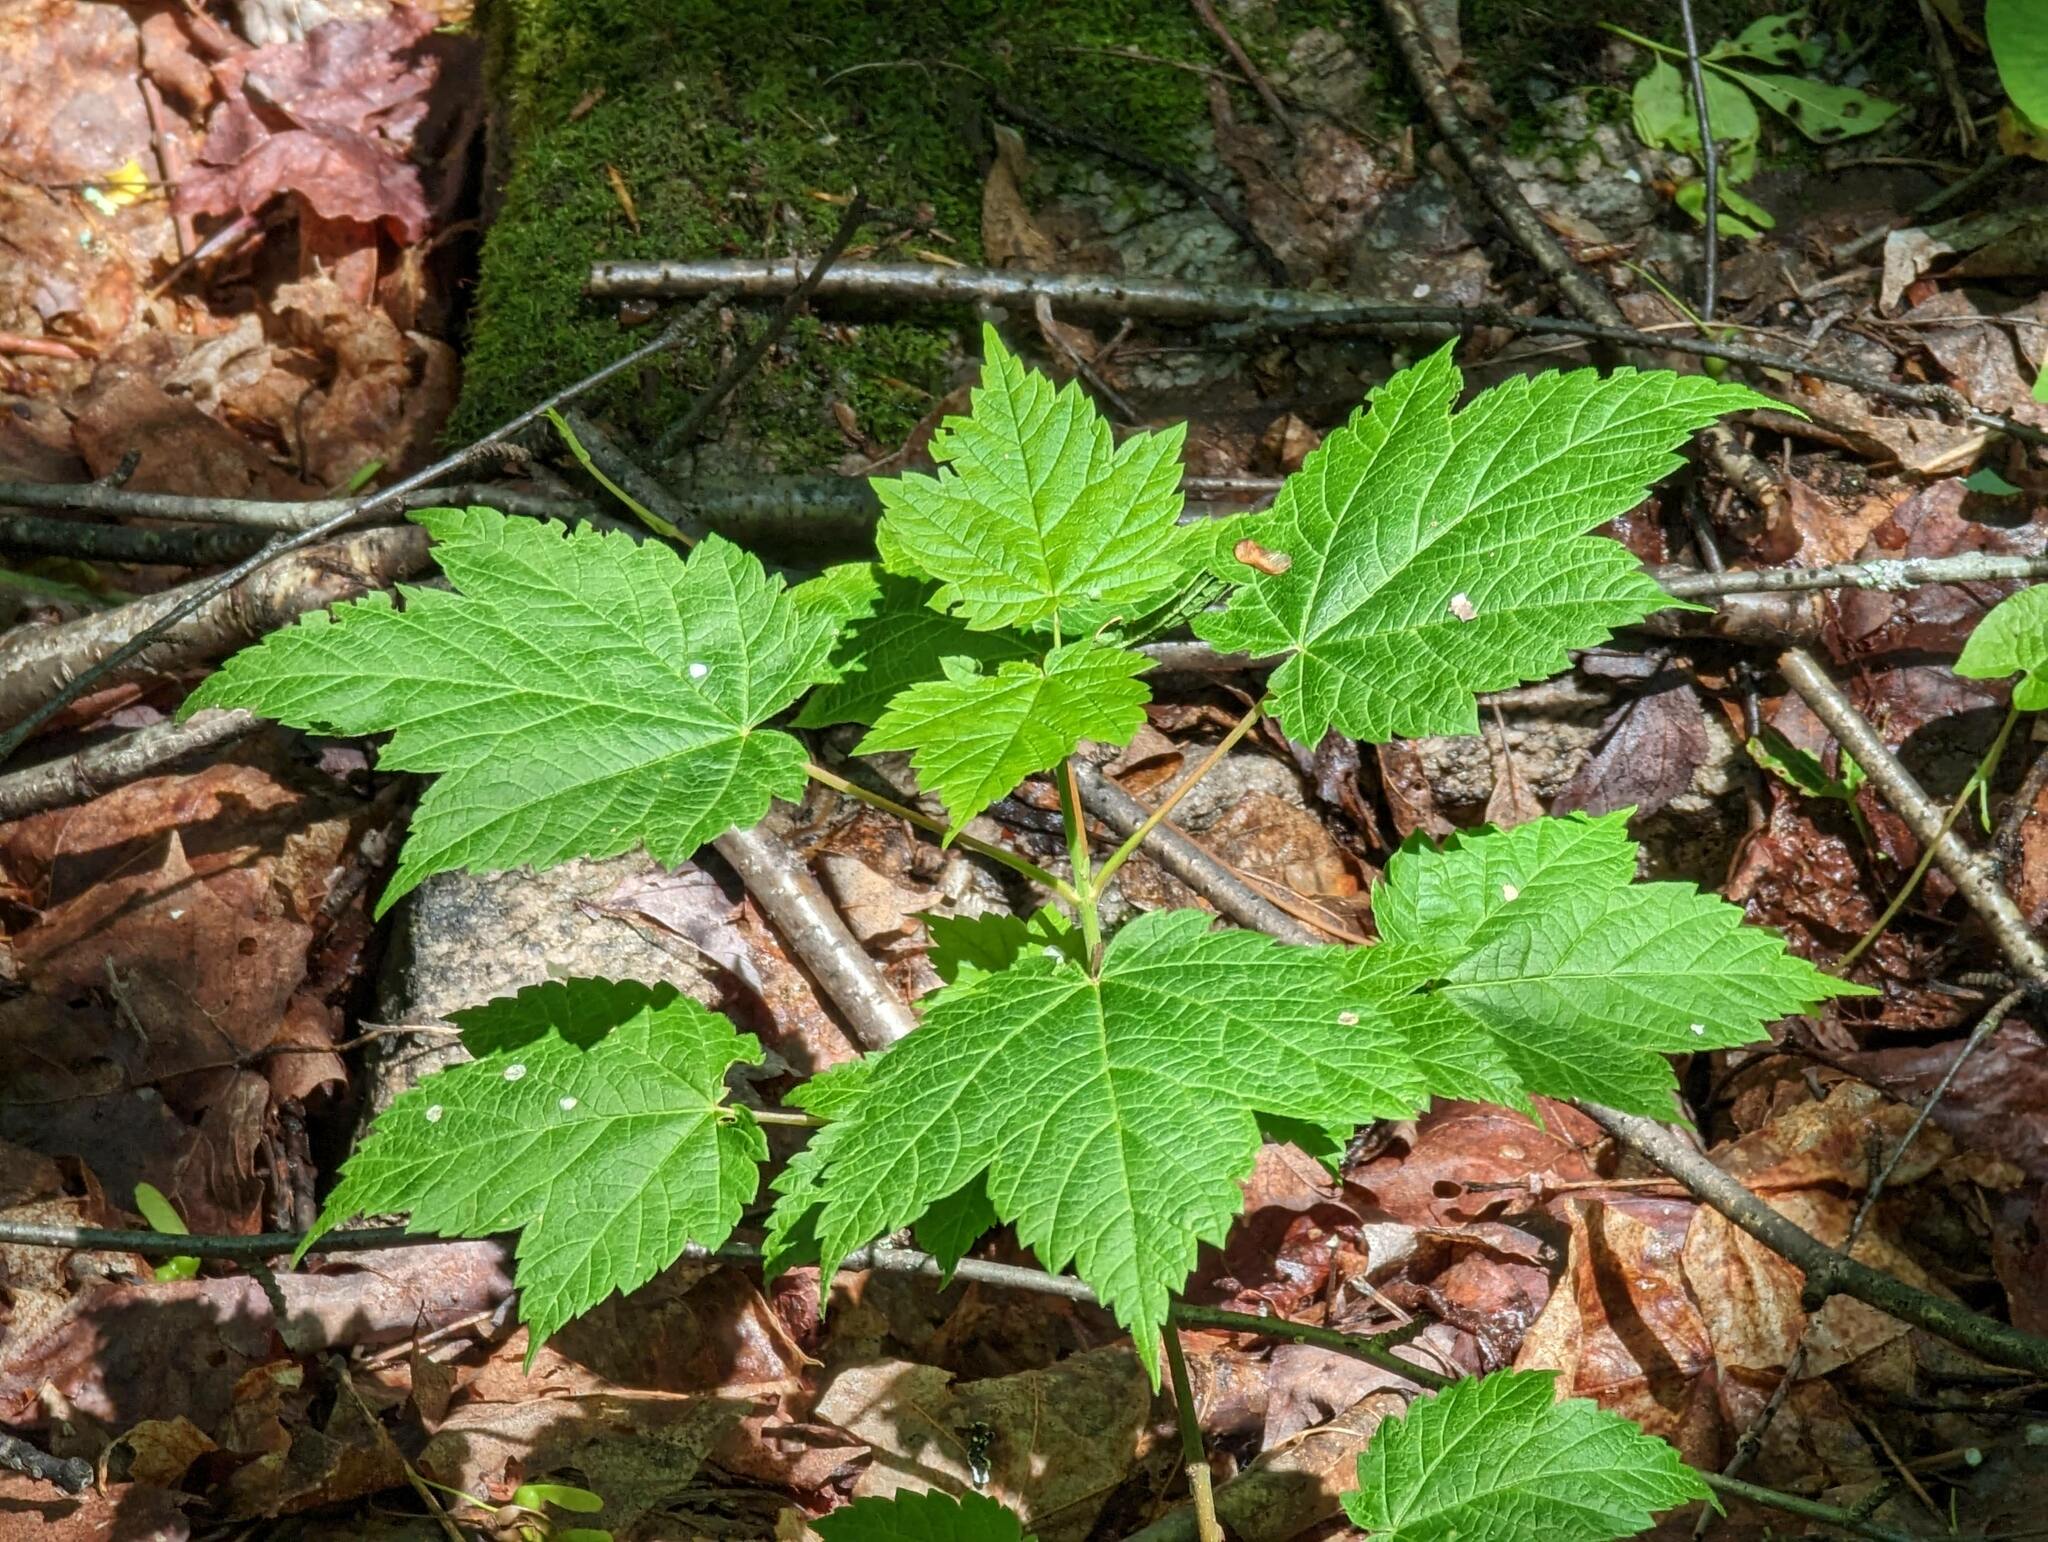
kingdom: Plantae
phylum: Tracheophyta
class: Magnoliopsida
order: Sapindales
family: Sapindaceae
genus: Acer
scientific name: Acer spicatum
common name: Mountain maple
